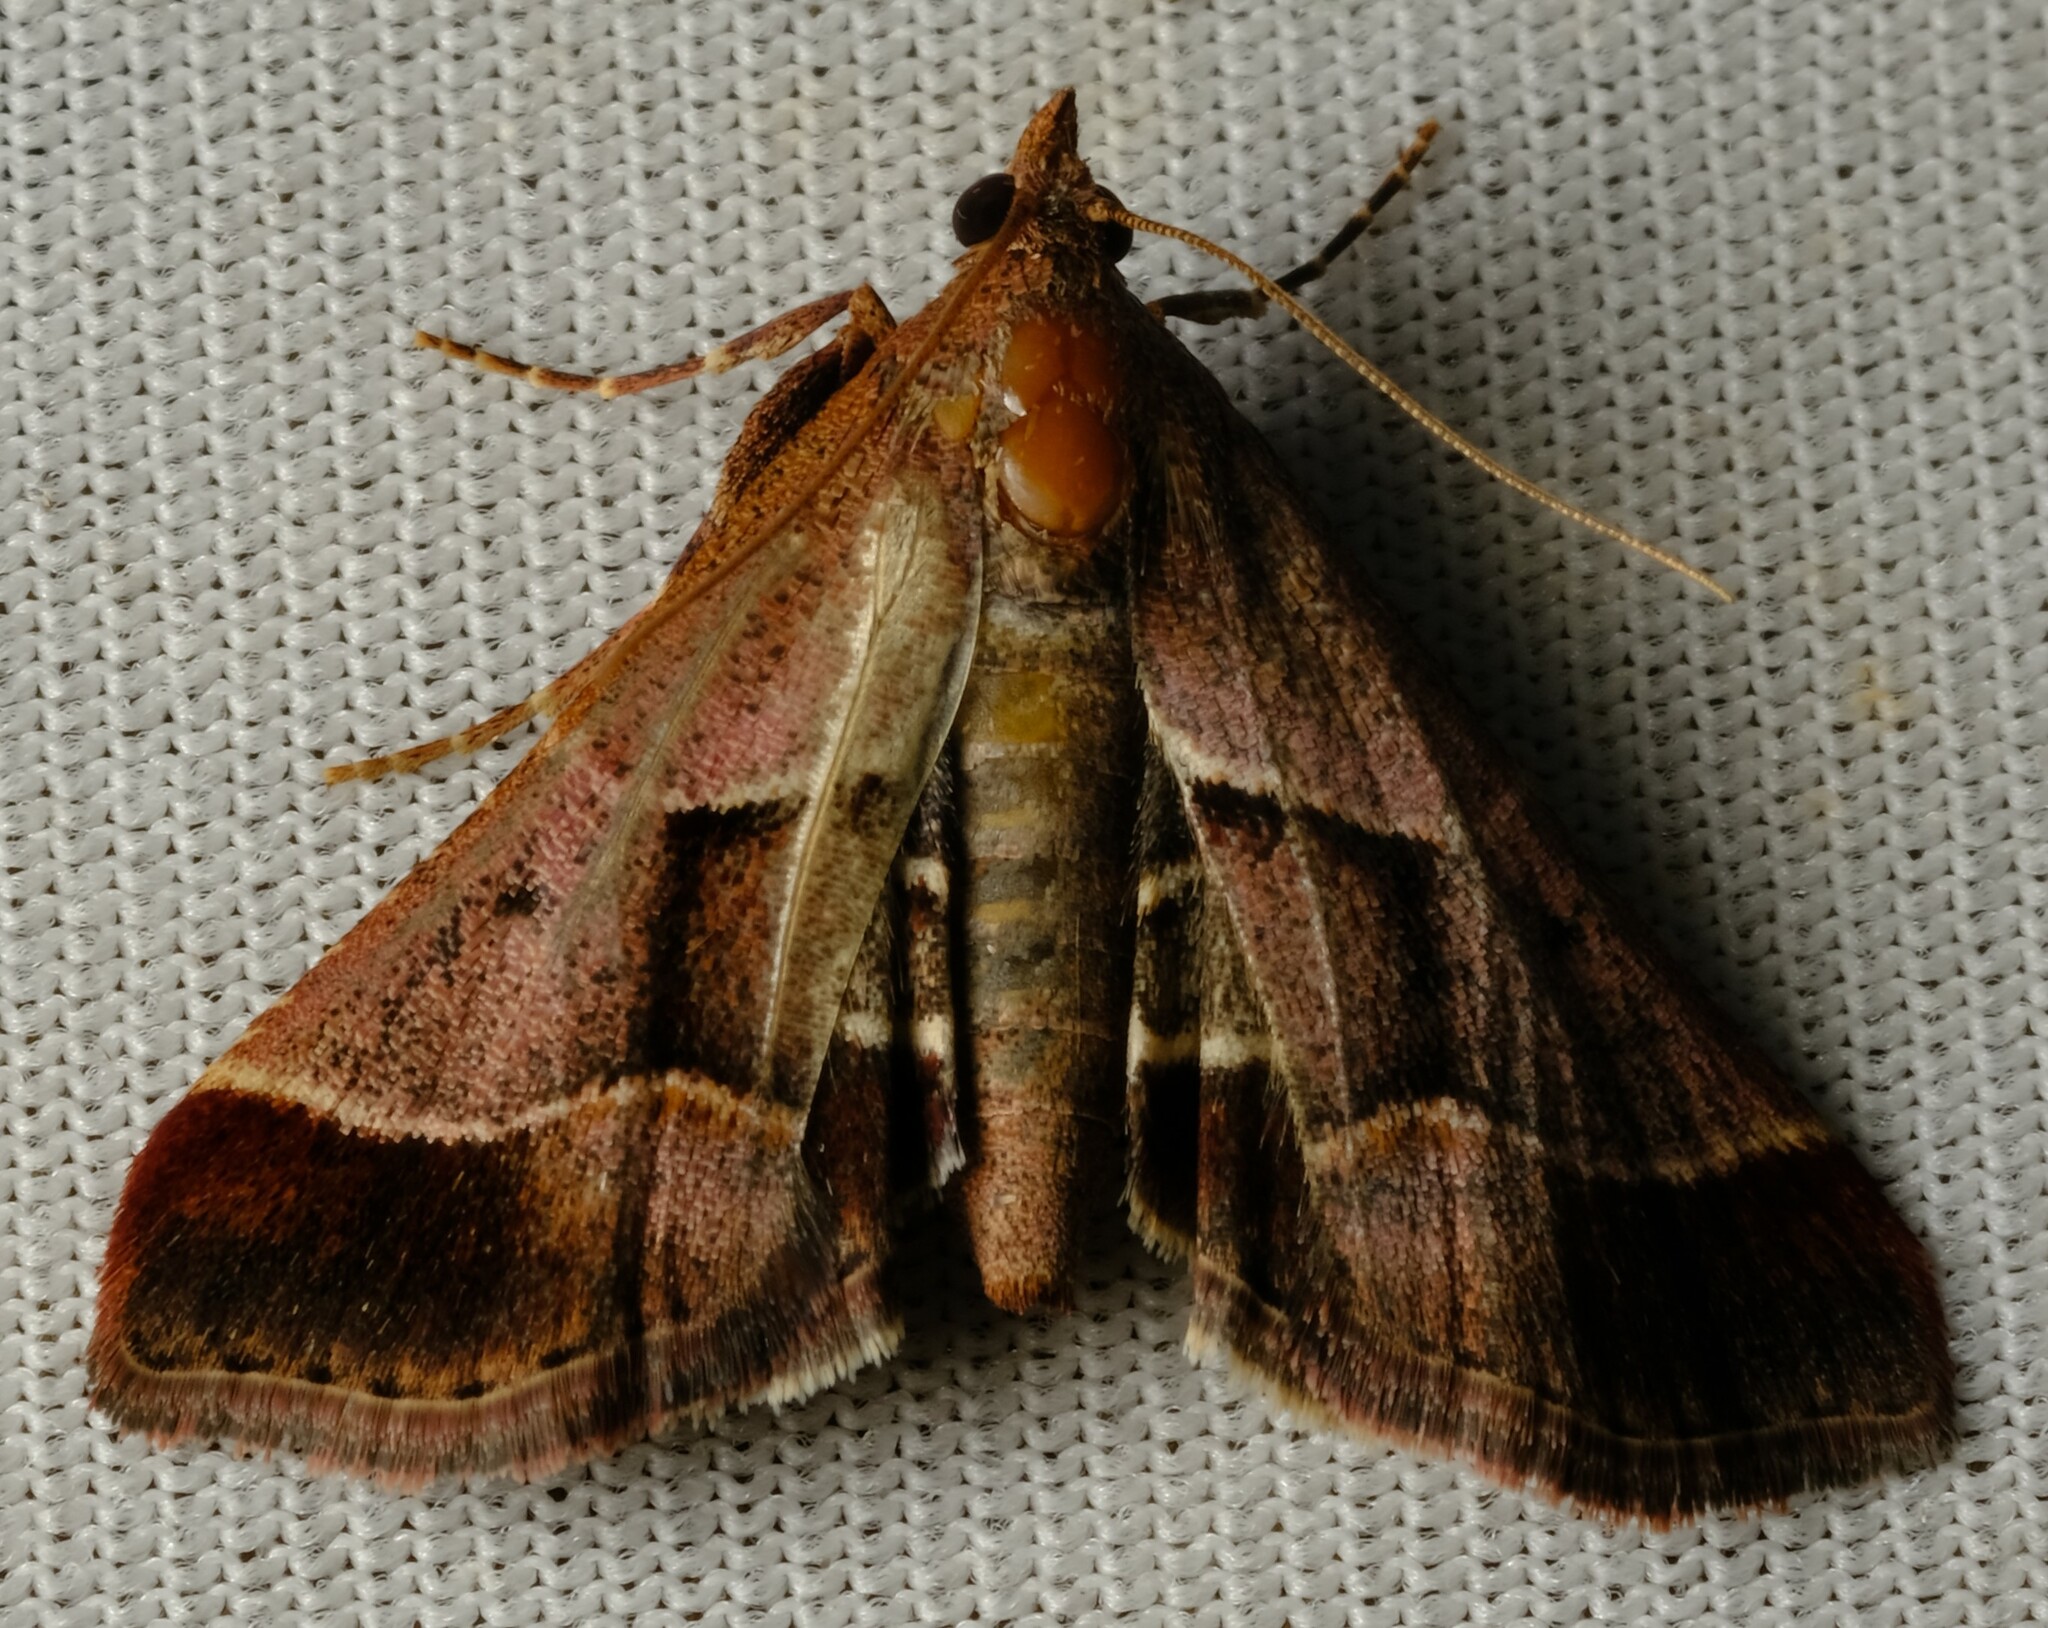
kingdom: Animalia
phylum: Arthropoda
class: Insecta
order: Lepidoptera
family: Pyralidae
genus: Gauna
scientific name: Gauna aegusalis
